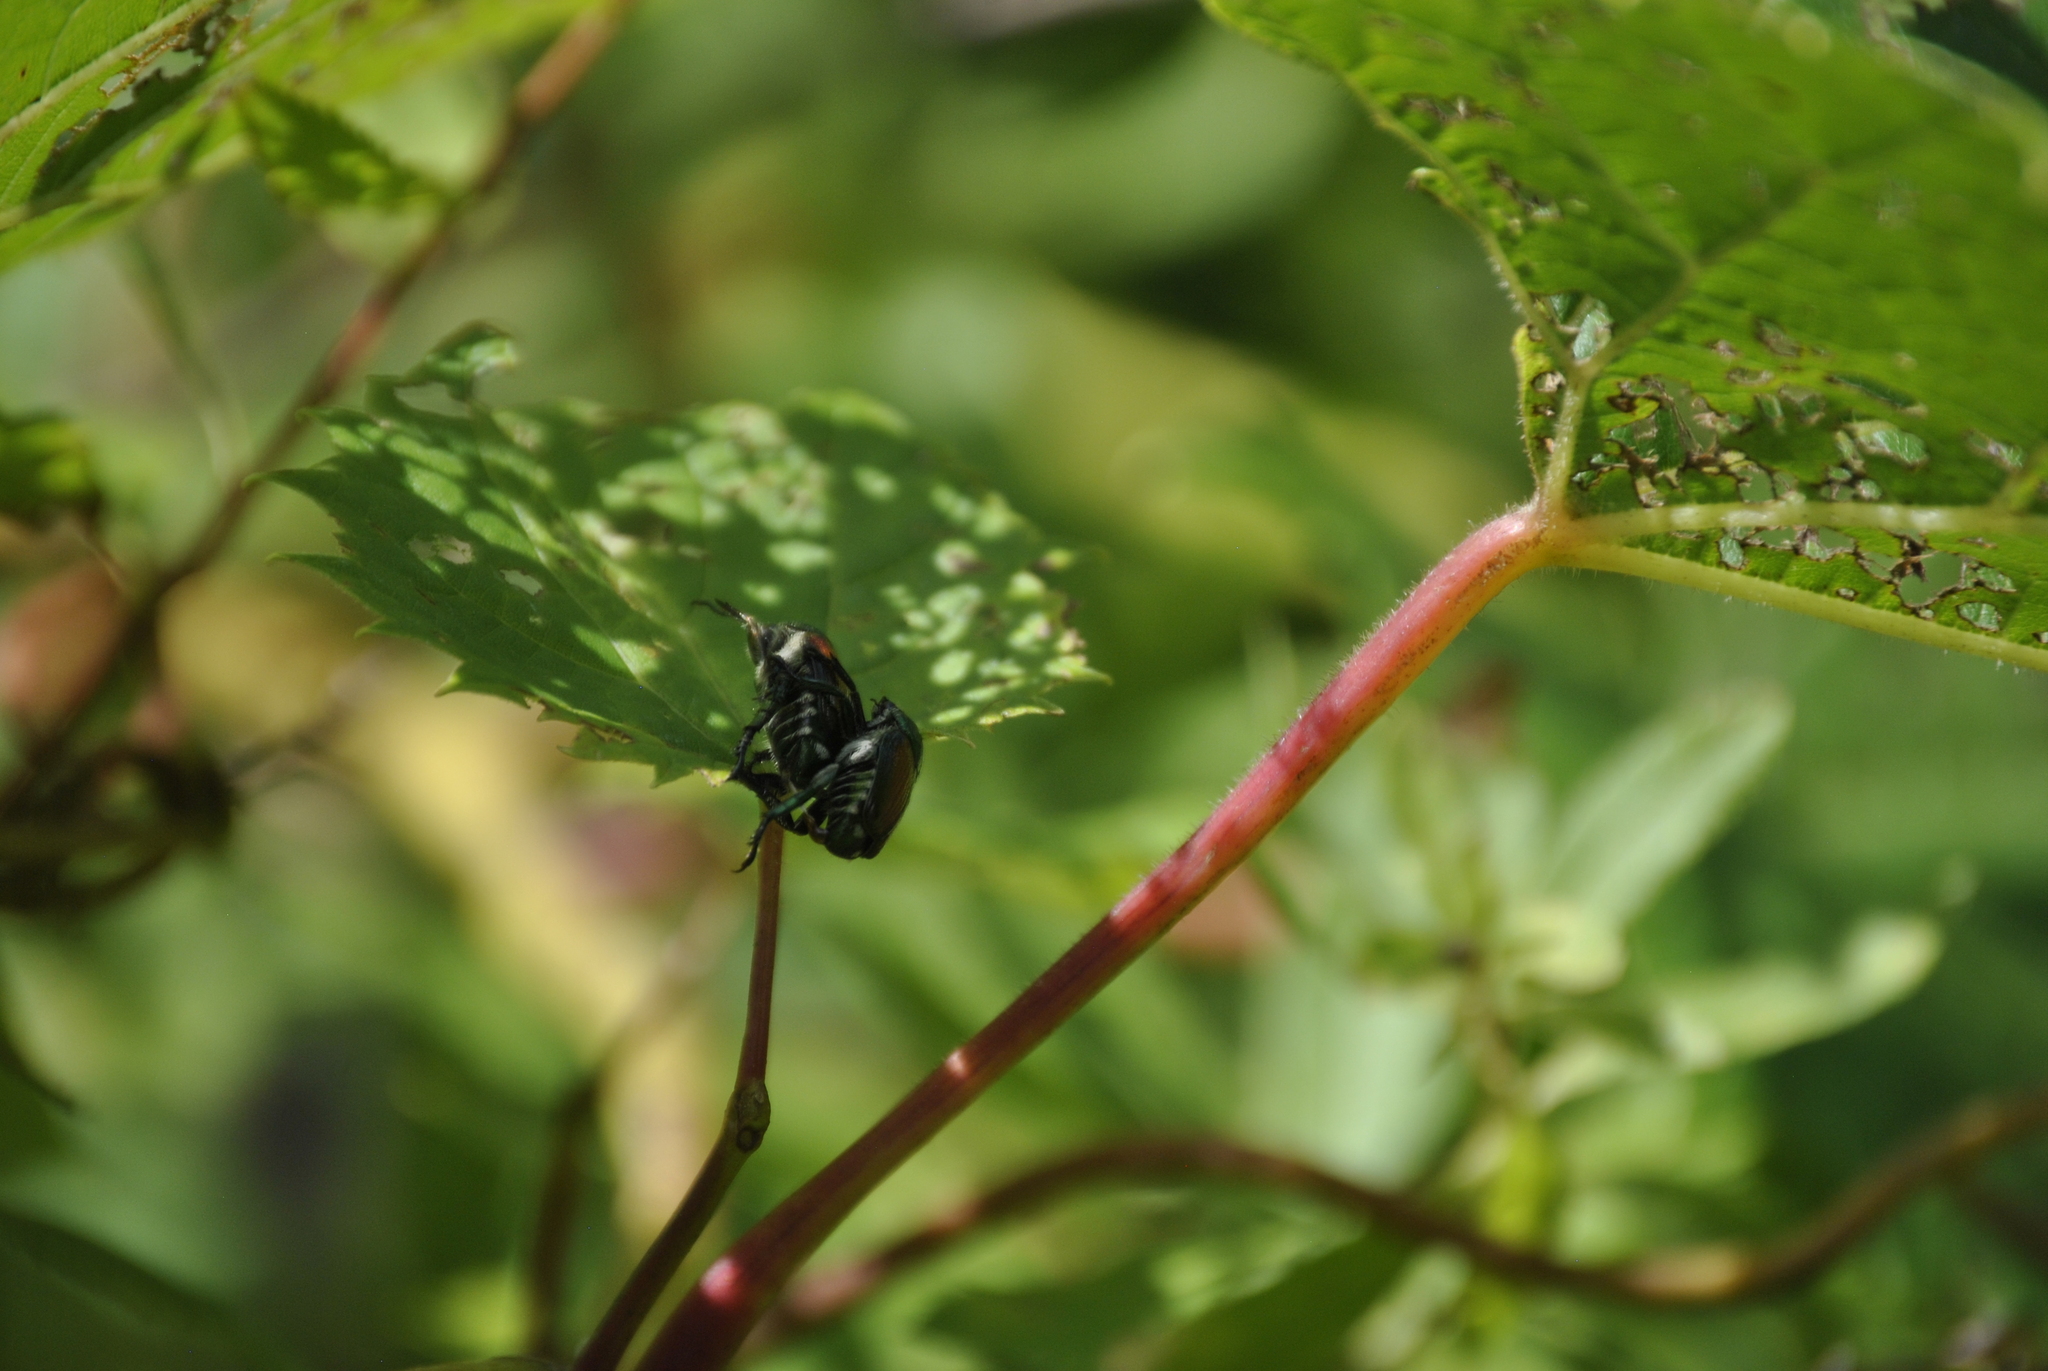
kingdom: Animalia
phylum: Arthropoda
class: Insecta
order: Coleoptera
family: Scarabaeidae
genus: Popillia
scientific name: Popillia japonica
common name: Japanese beetle
